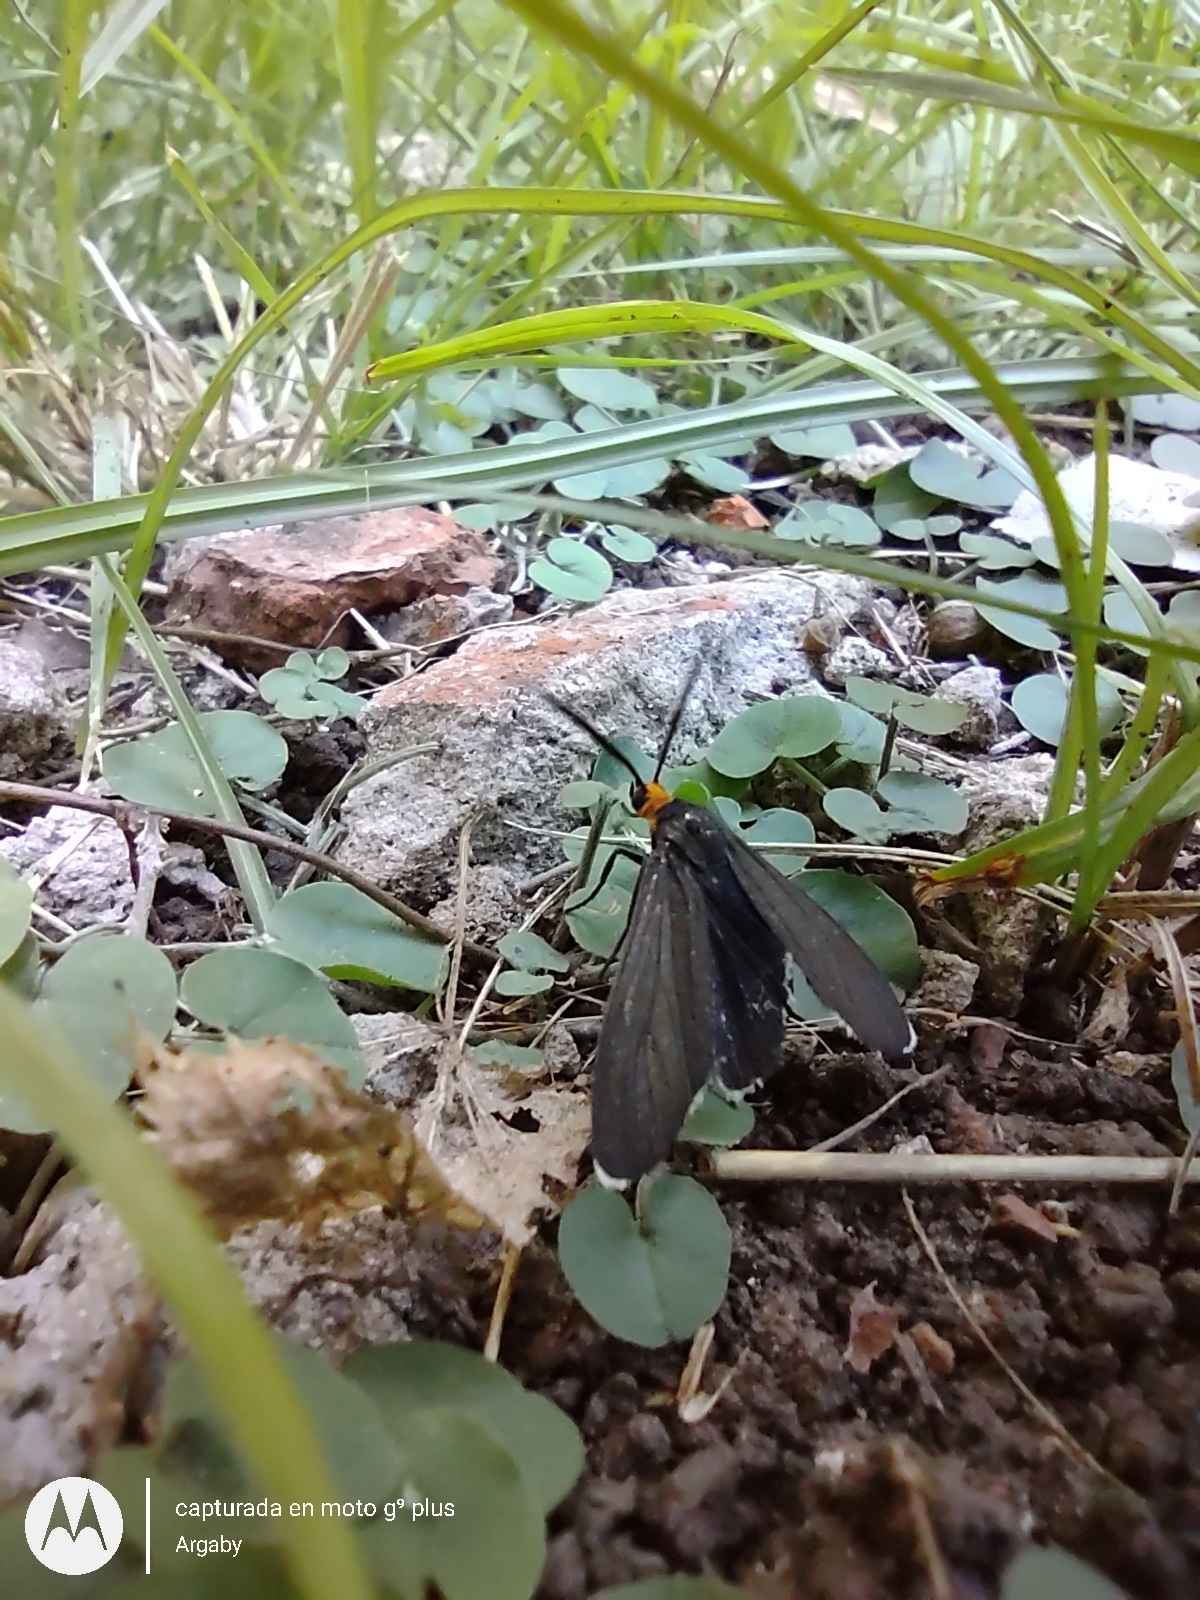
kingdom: Animalia
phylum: Arthropoda
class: Insecta
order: Lepidoptera
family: Erebidae
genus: Ctenucha
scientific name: Ctenucha rubriceps
